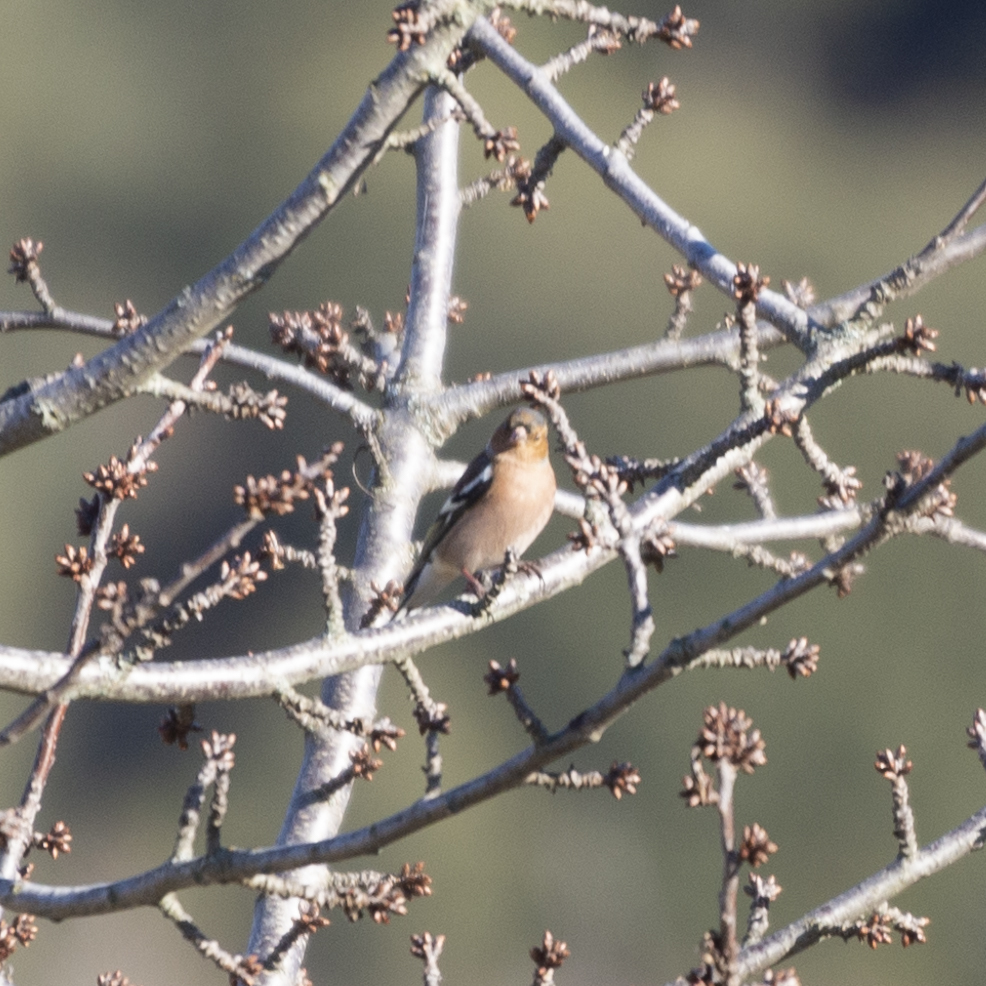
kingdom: Animalia
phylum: Chordata
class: Aves
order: Passeriformes
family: Fringillidae
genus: Fringilla
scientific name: Fringilla coelebs
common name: Common chaffinch
